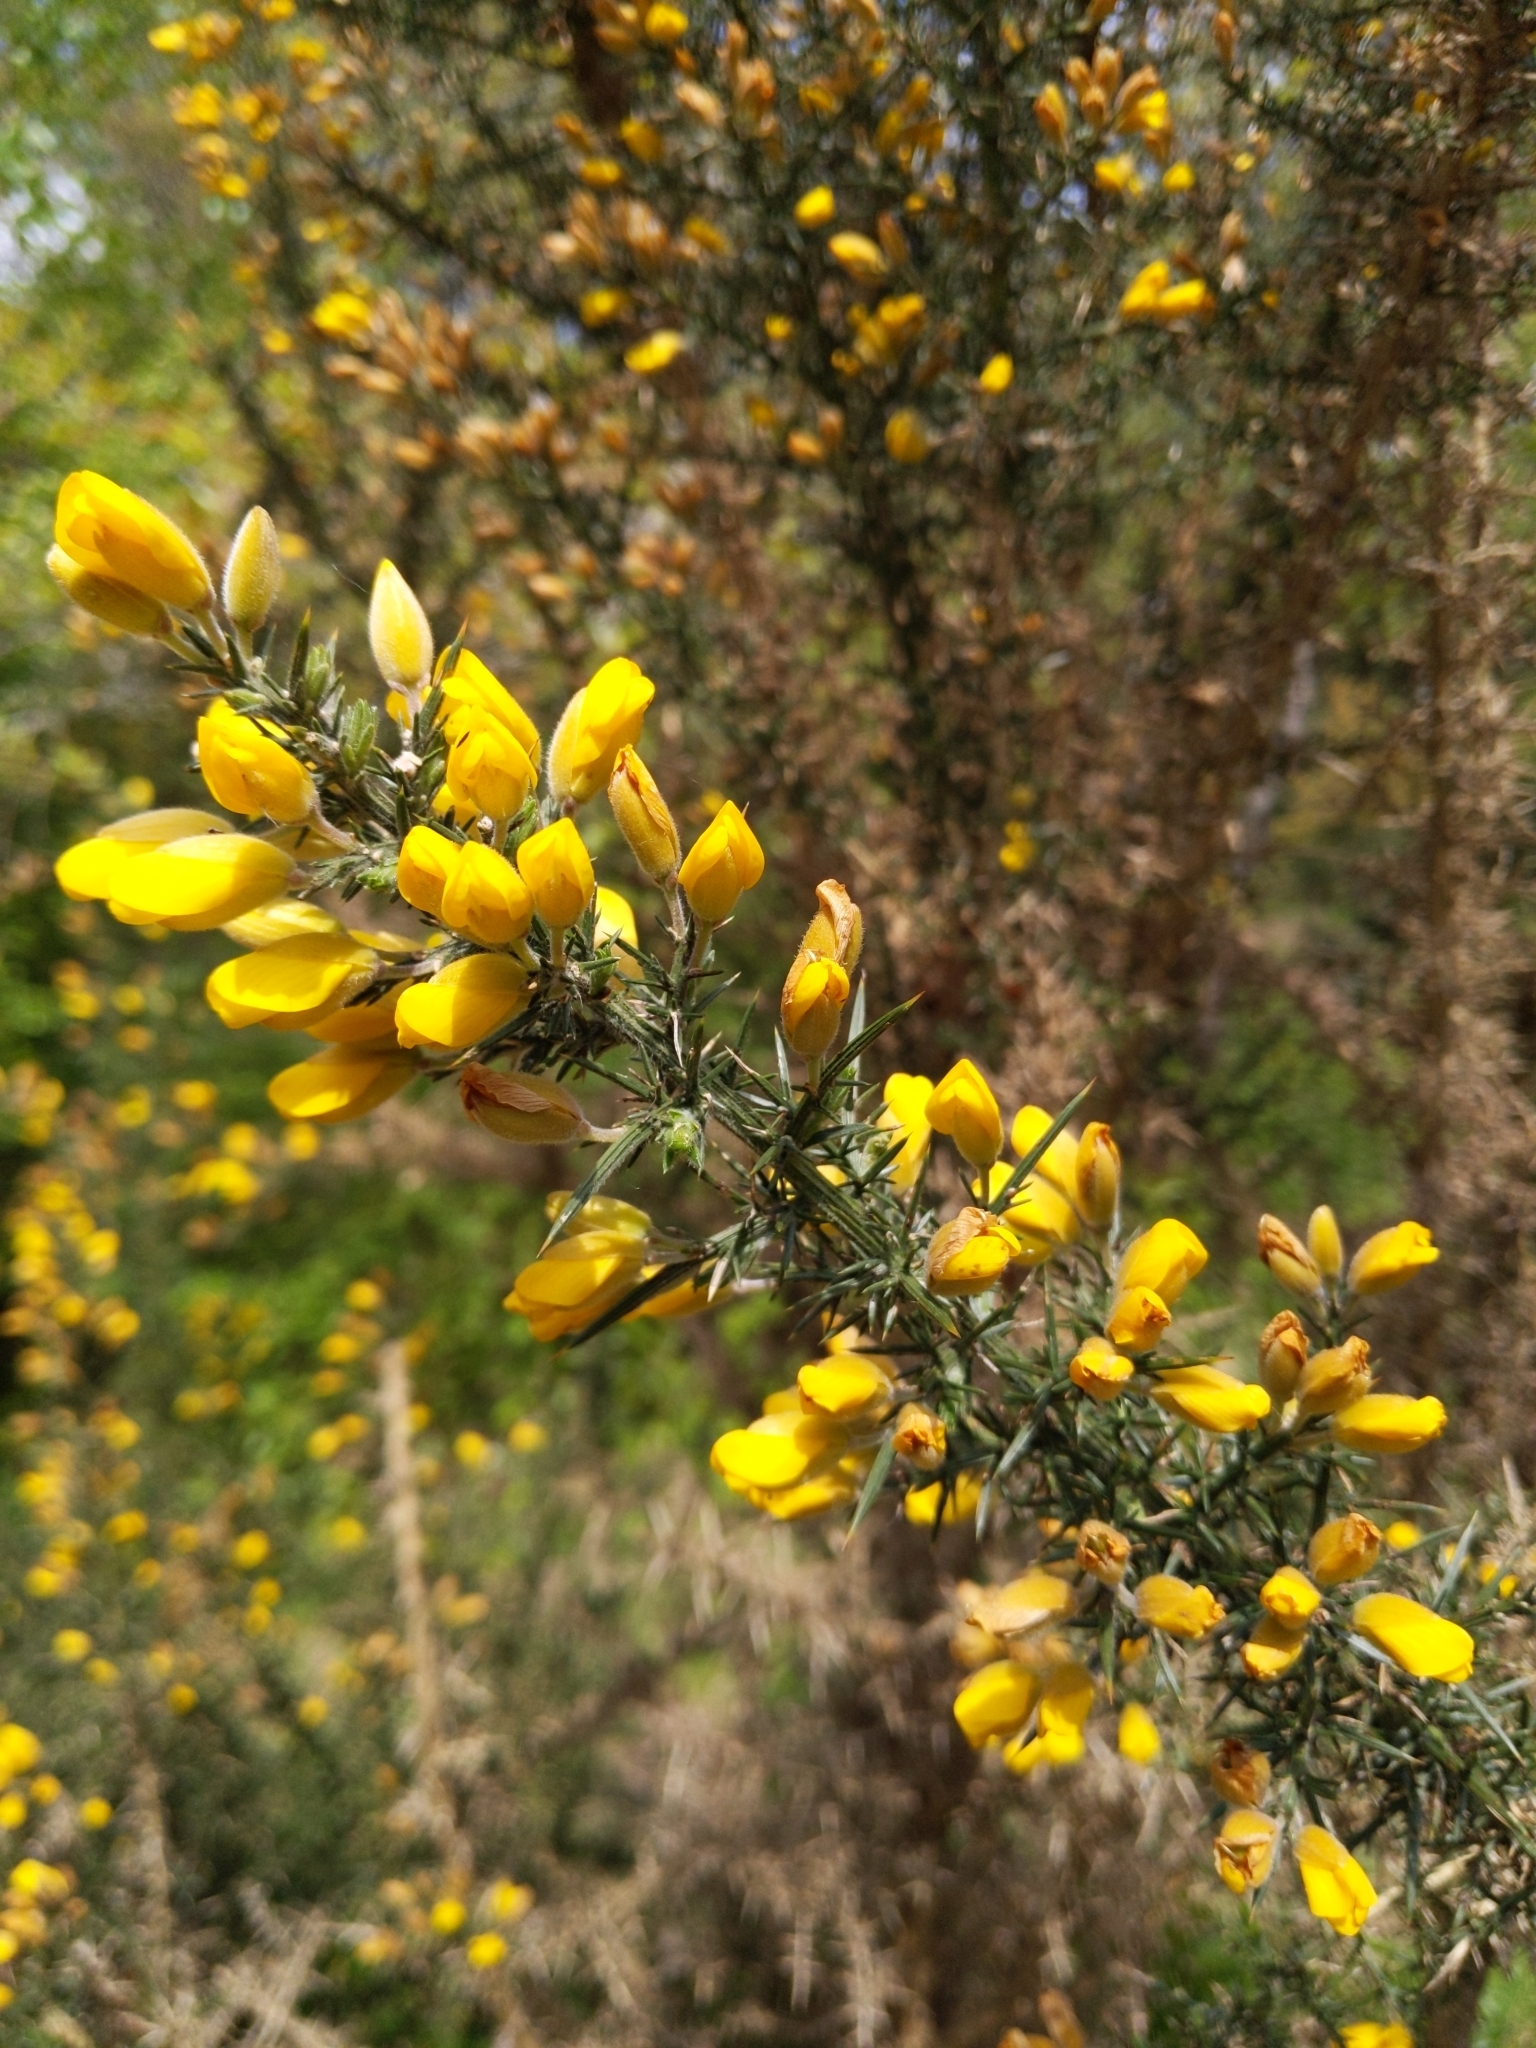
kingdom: Plantae
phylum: Tracheophyta
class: Magnoliopsida
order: Fabales
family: Fabaceae
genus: Ulex
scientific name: Ulex europaeus
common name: Common gorse
